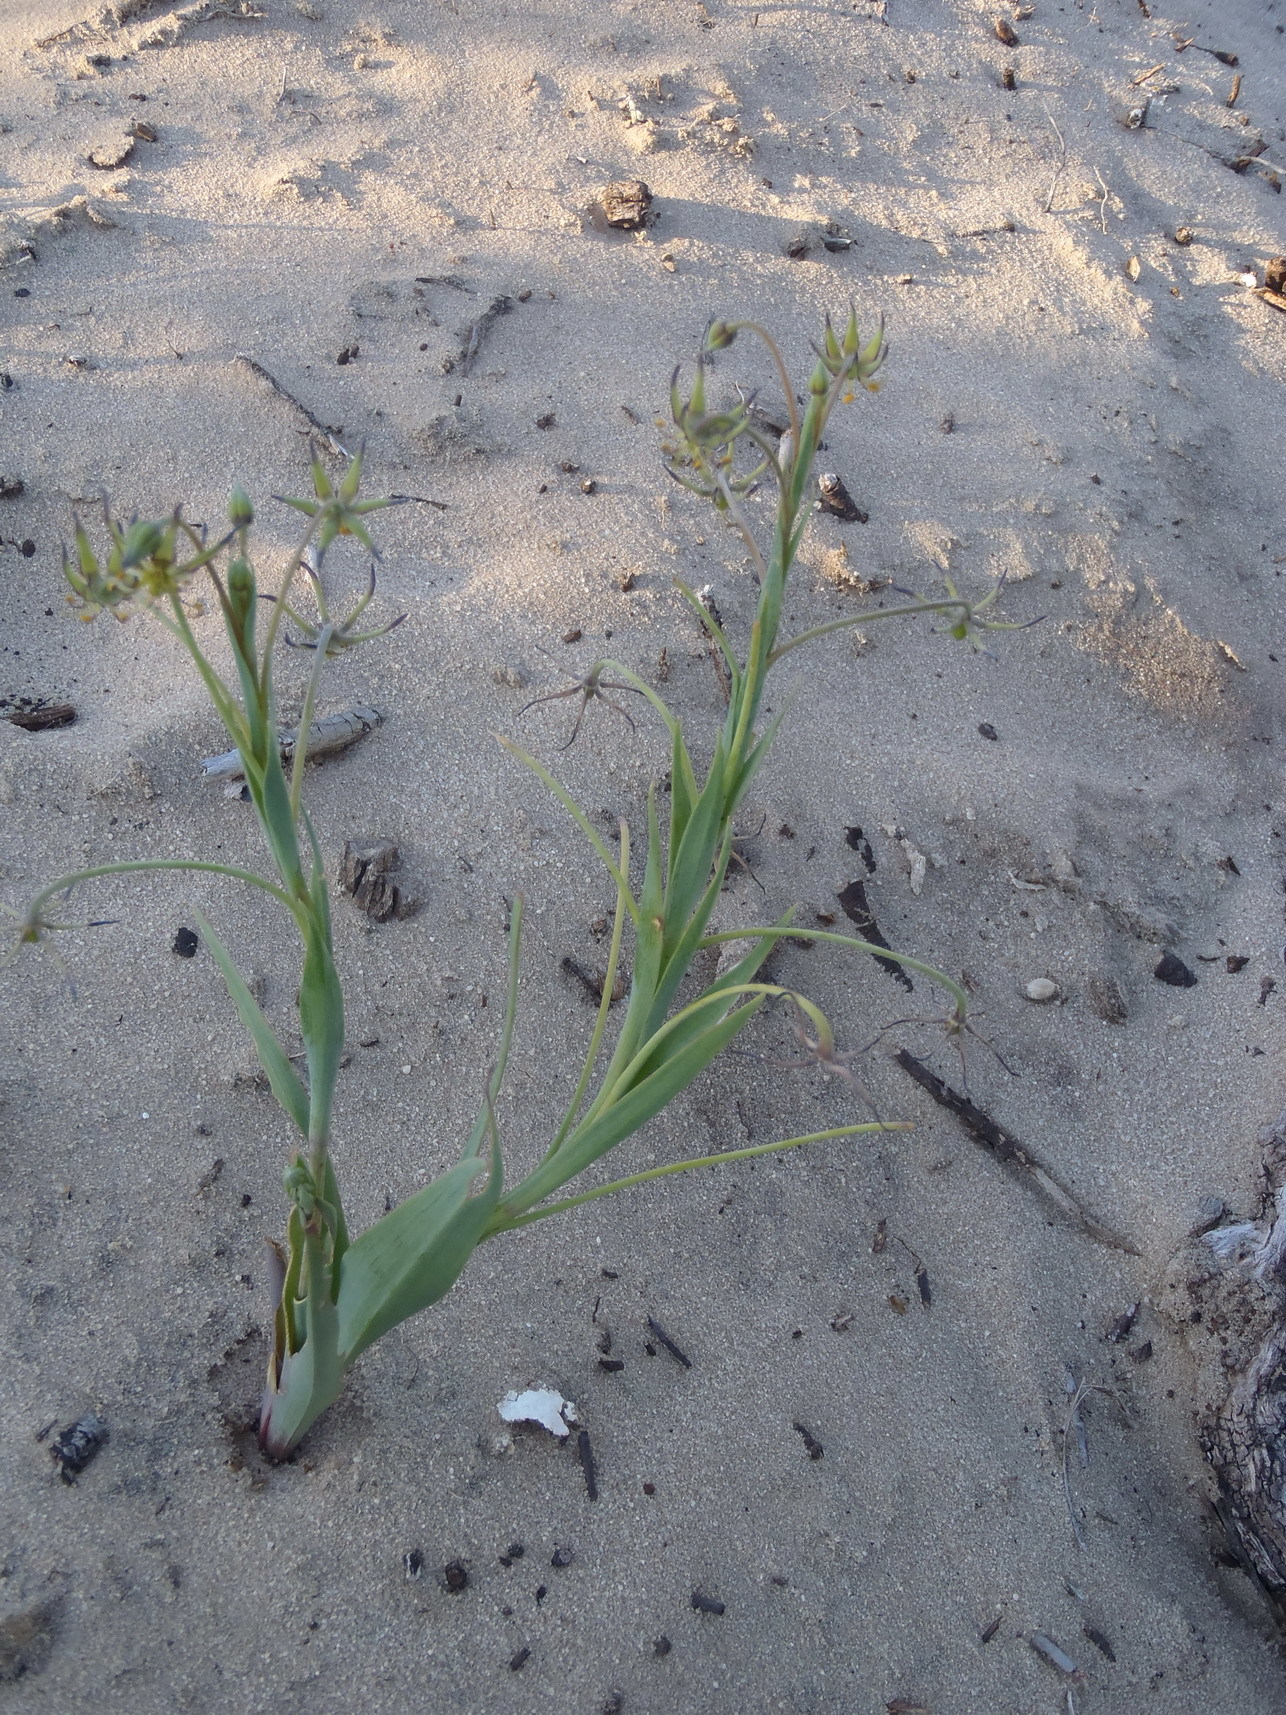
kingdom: Plantae
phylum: Tracheophyta
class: Liliopsida
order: Liliales
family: Colchicaceae
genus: Ornithoglossum
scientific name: Ornithoglossum viride
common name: Cape poison-onion
